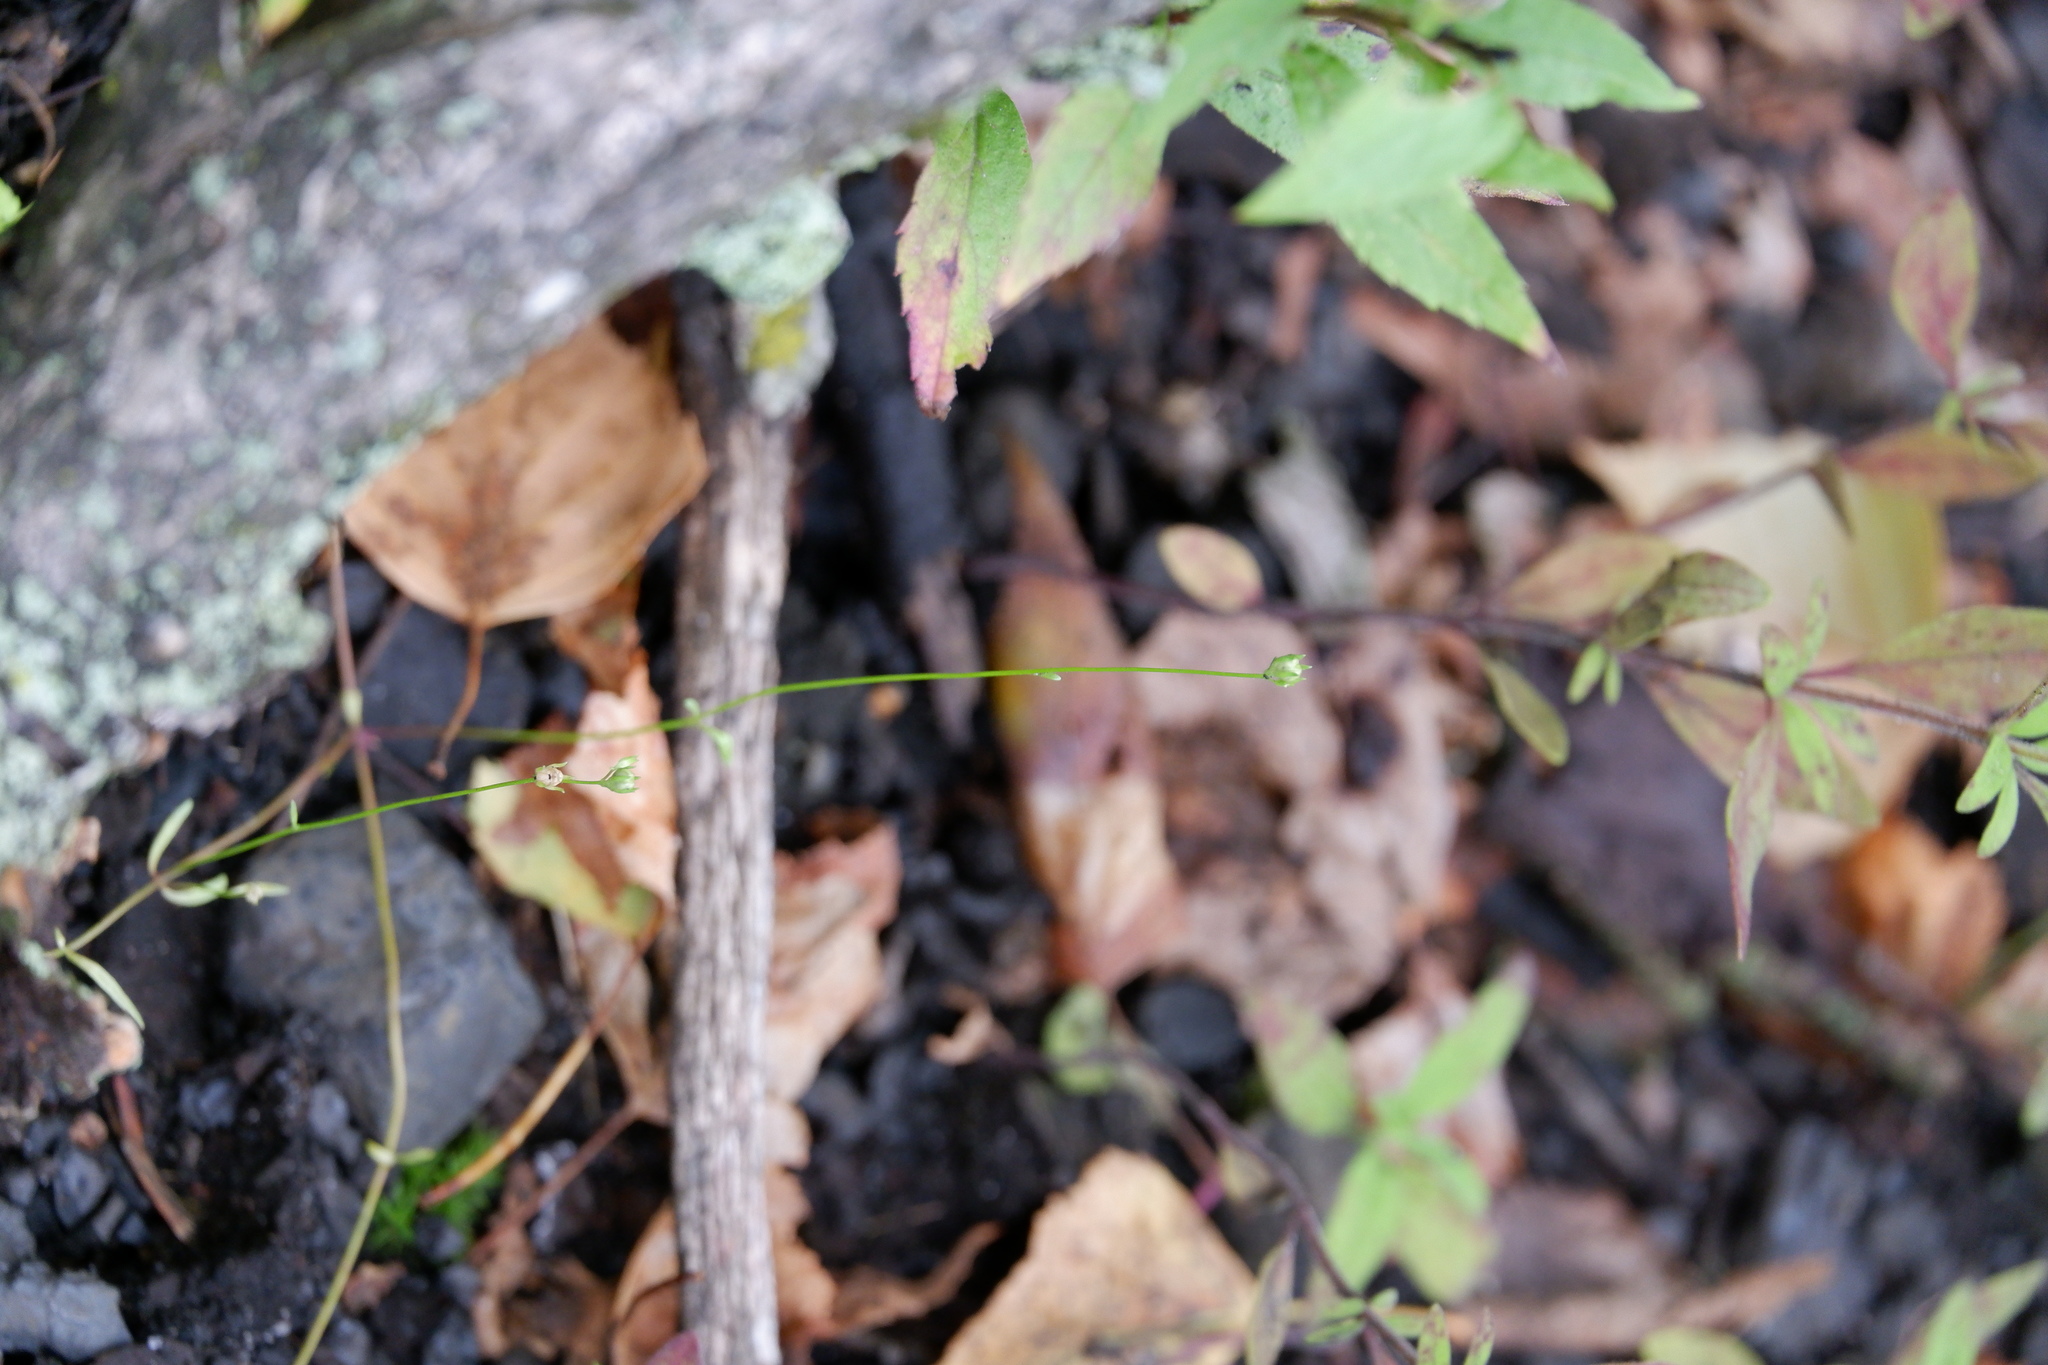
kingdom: Plantae
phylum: Tracheophyta
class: Magnoliopsida
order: Lamiales
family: Plantaginaceae
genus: Nuttallanthus
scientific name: Nuttallanthus canadensis
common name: Blue toadflax
